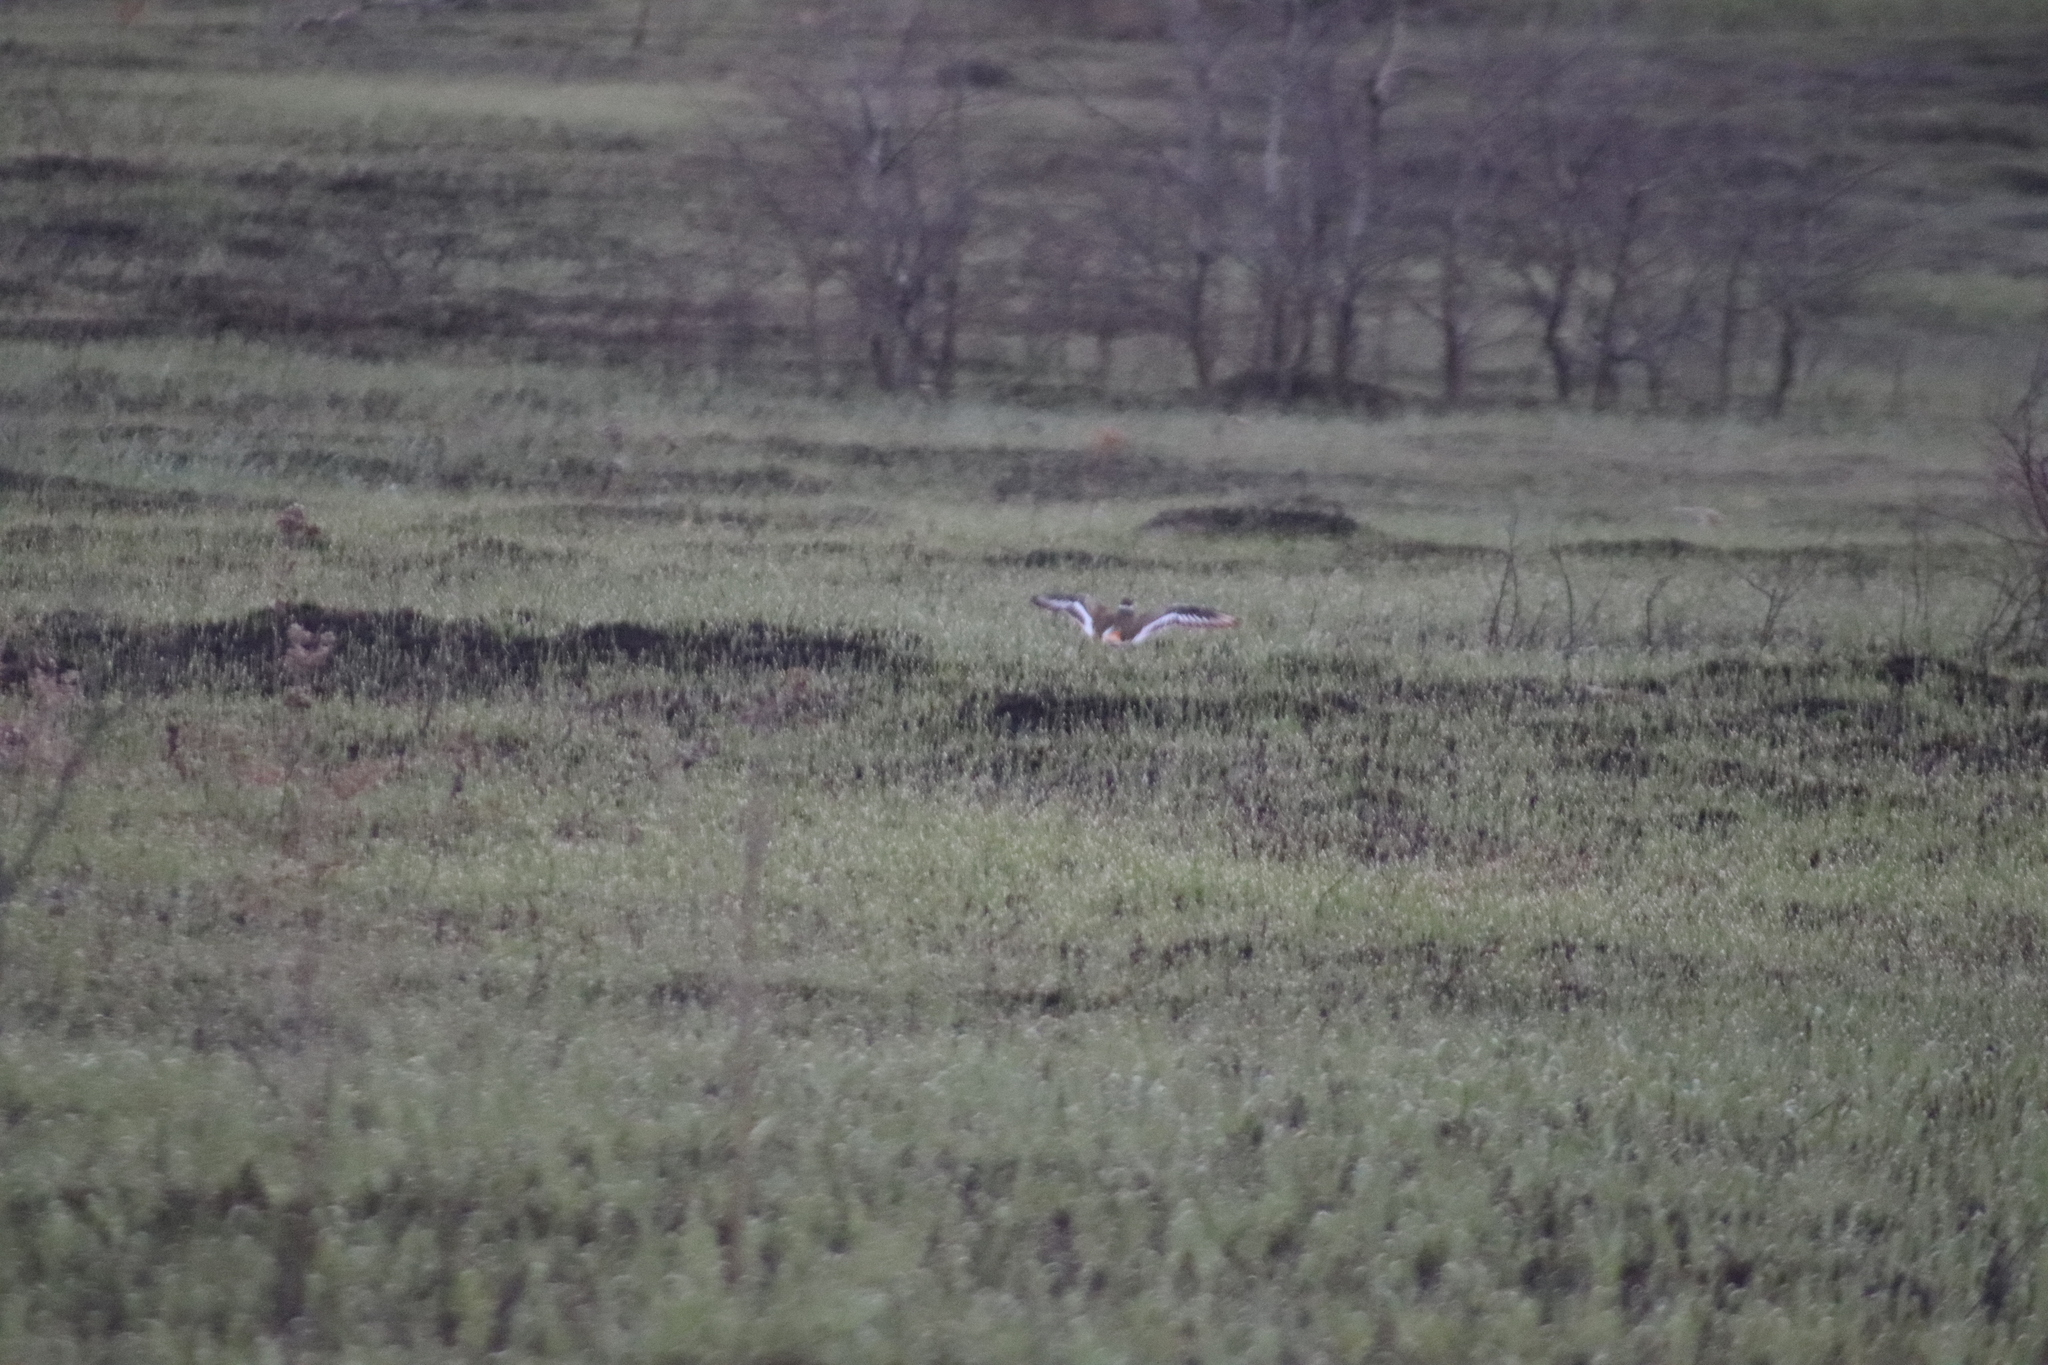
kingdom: Animalia
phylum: Chordata
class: Aves
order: Charadriiformes
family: Charadriidae
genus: Charadrius
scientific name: Charadrius vociferus
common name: Killdeer
